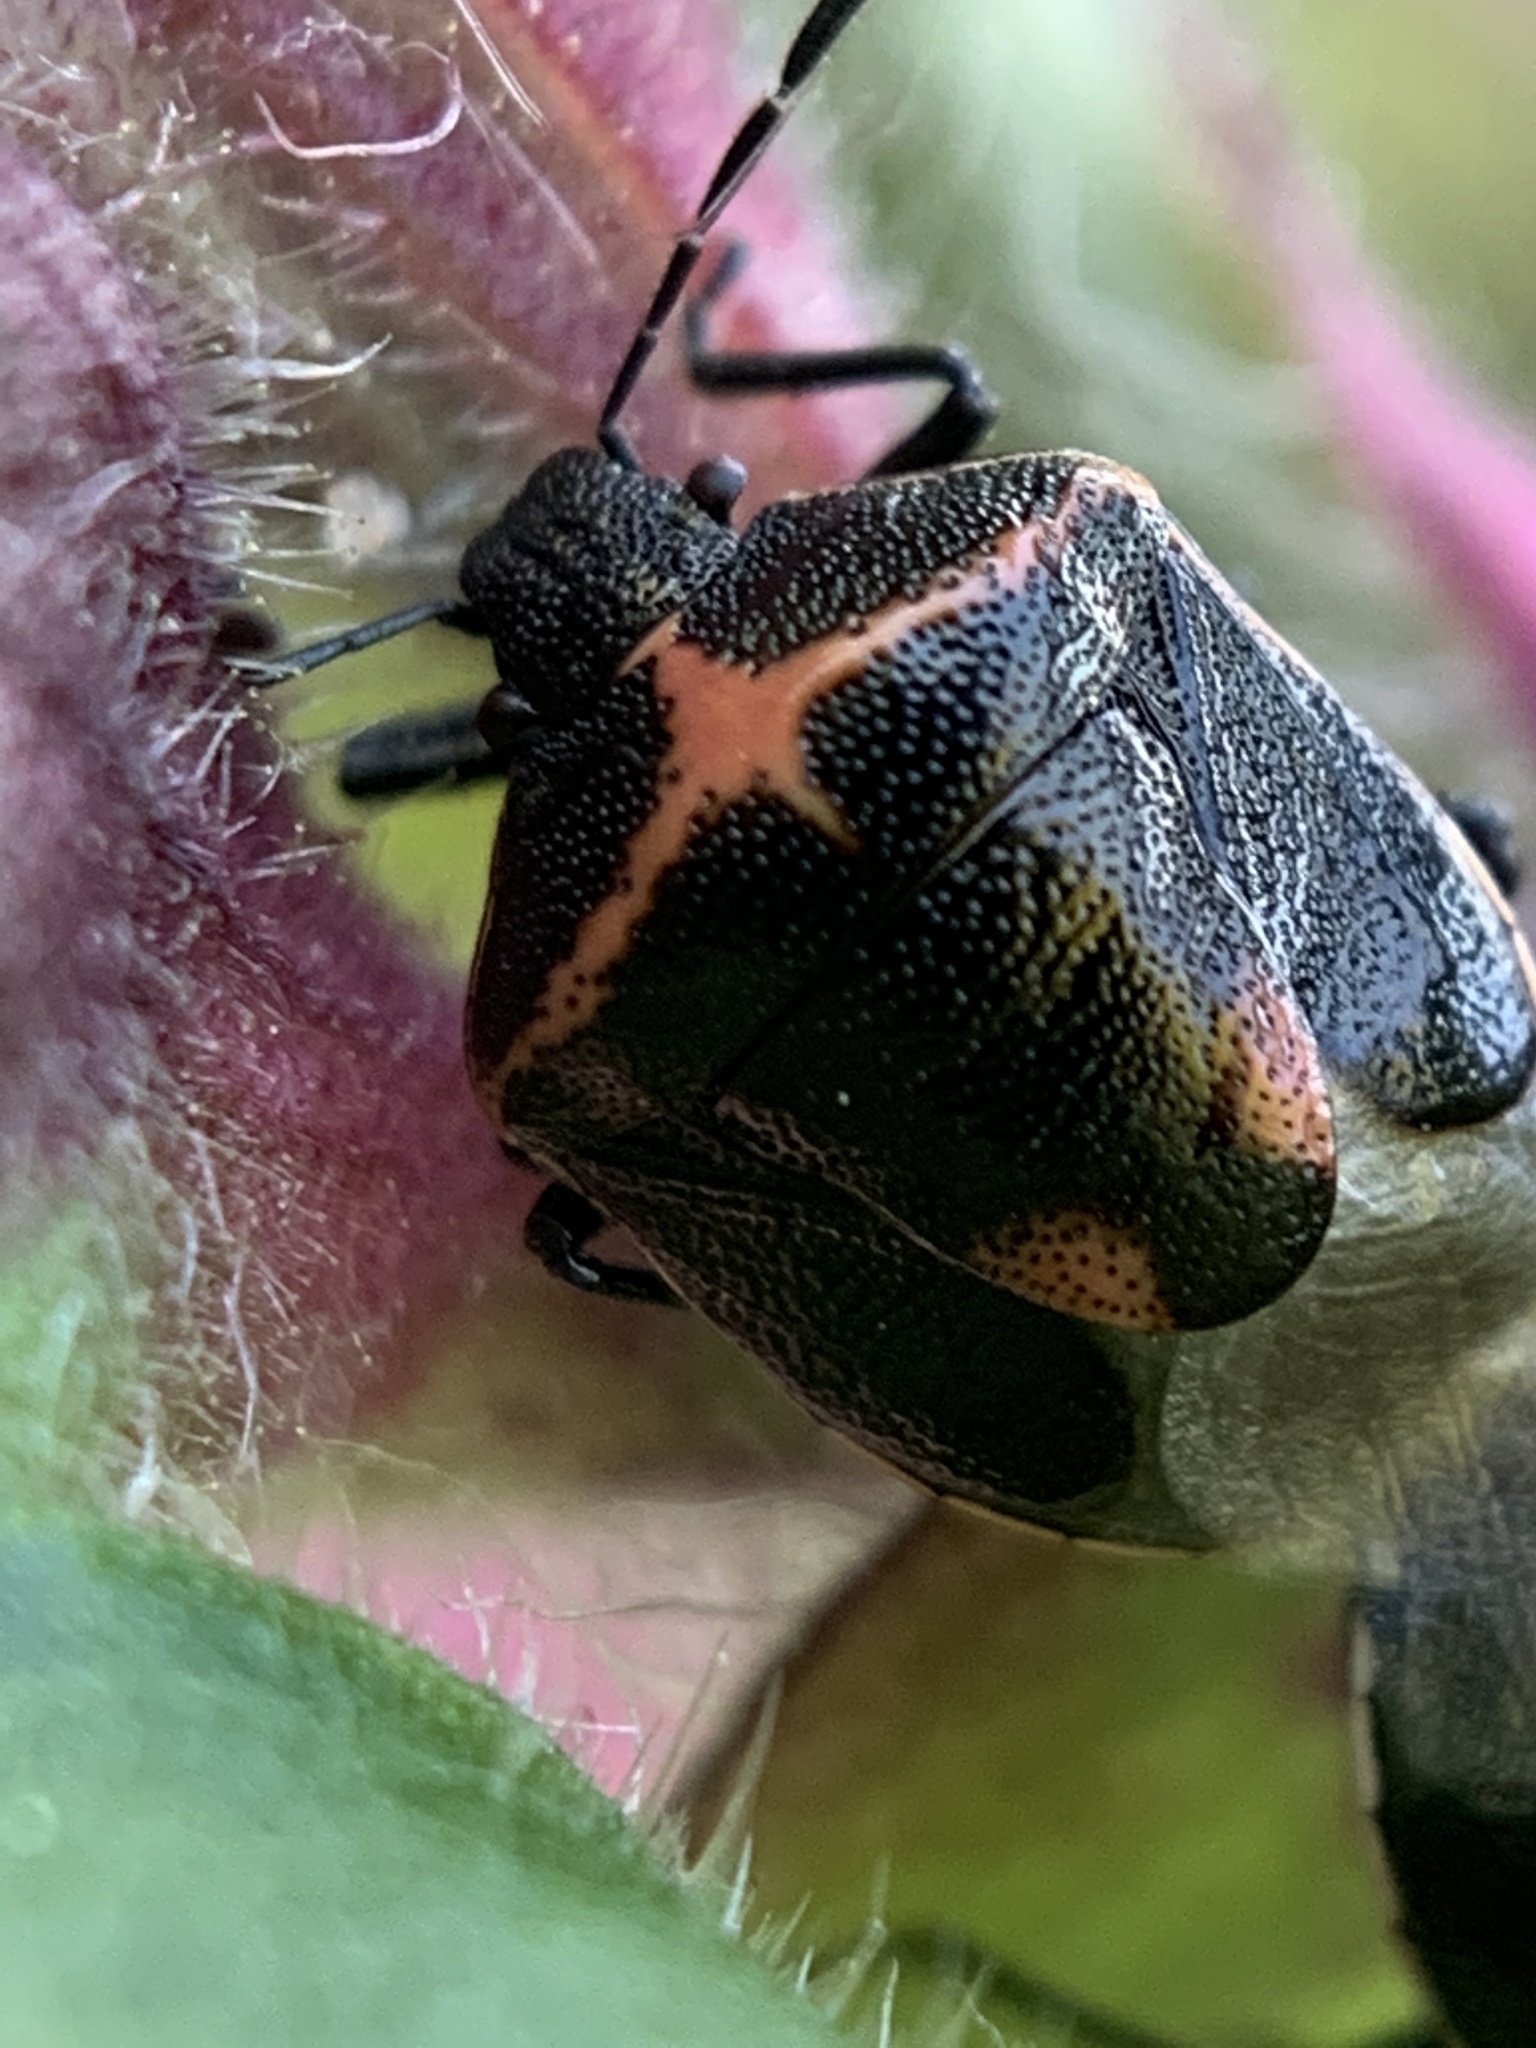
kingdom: Animalia
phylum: Arthropoda
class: Insecta
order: Hemiptera
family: Pentatomidae
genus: Cosmopepla
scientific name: Cosmopepla lintneriana
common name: Twice-stabbed stink bug
